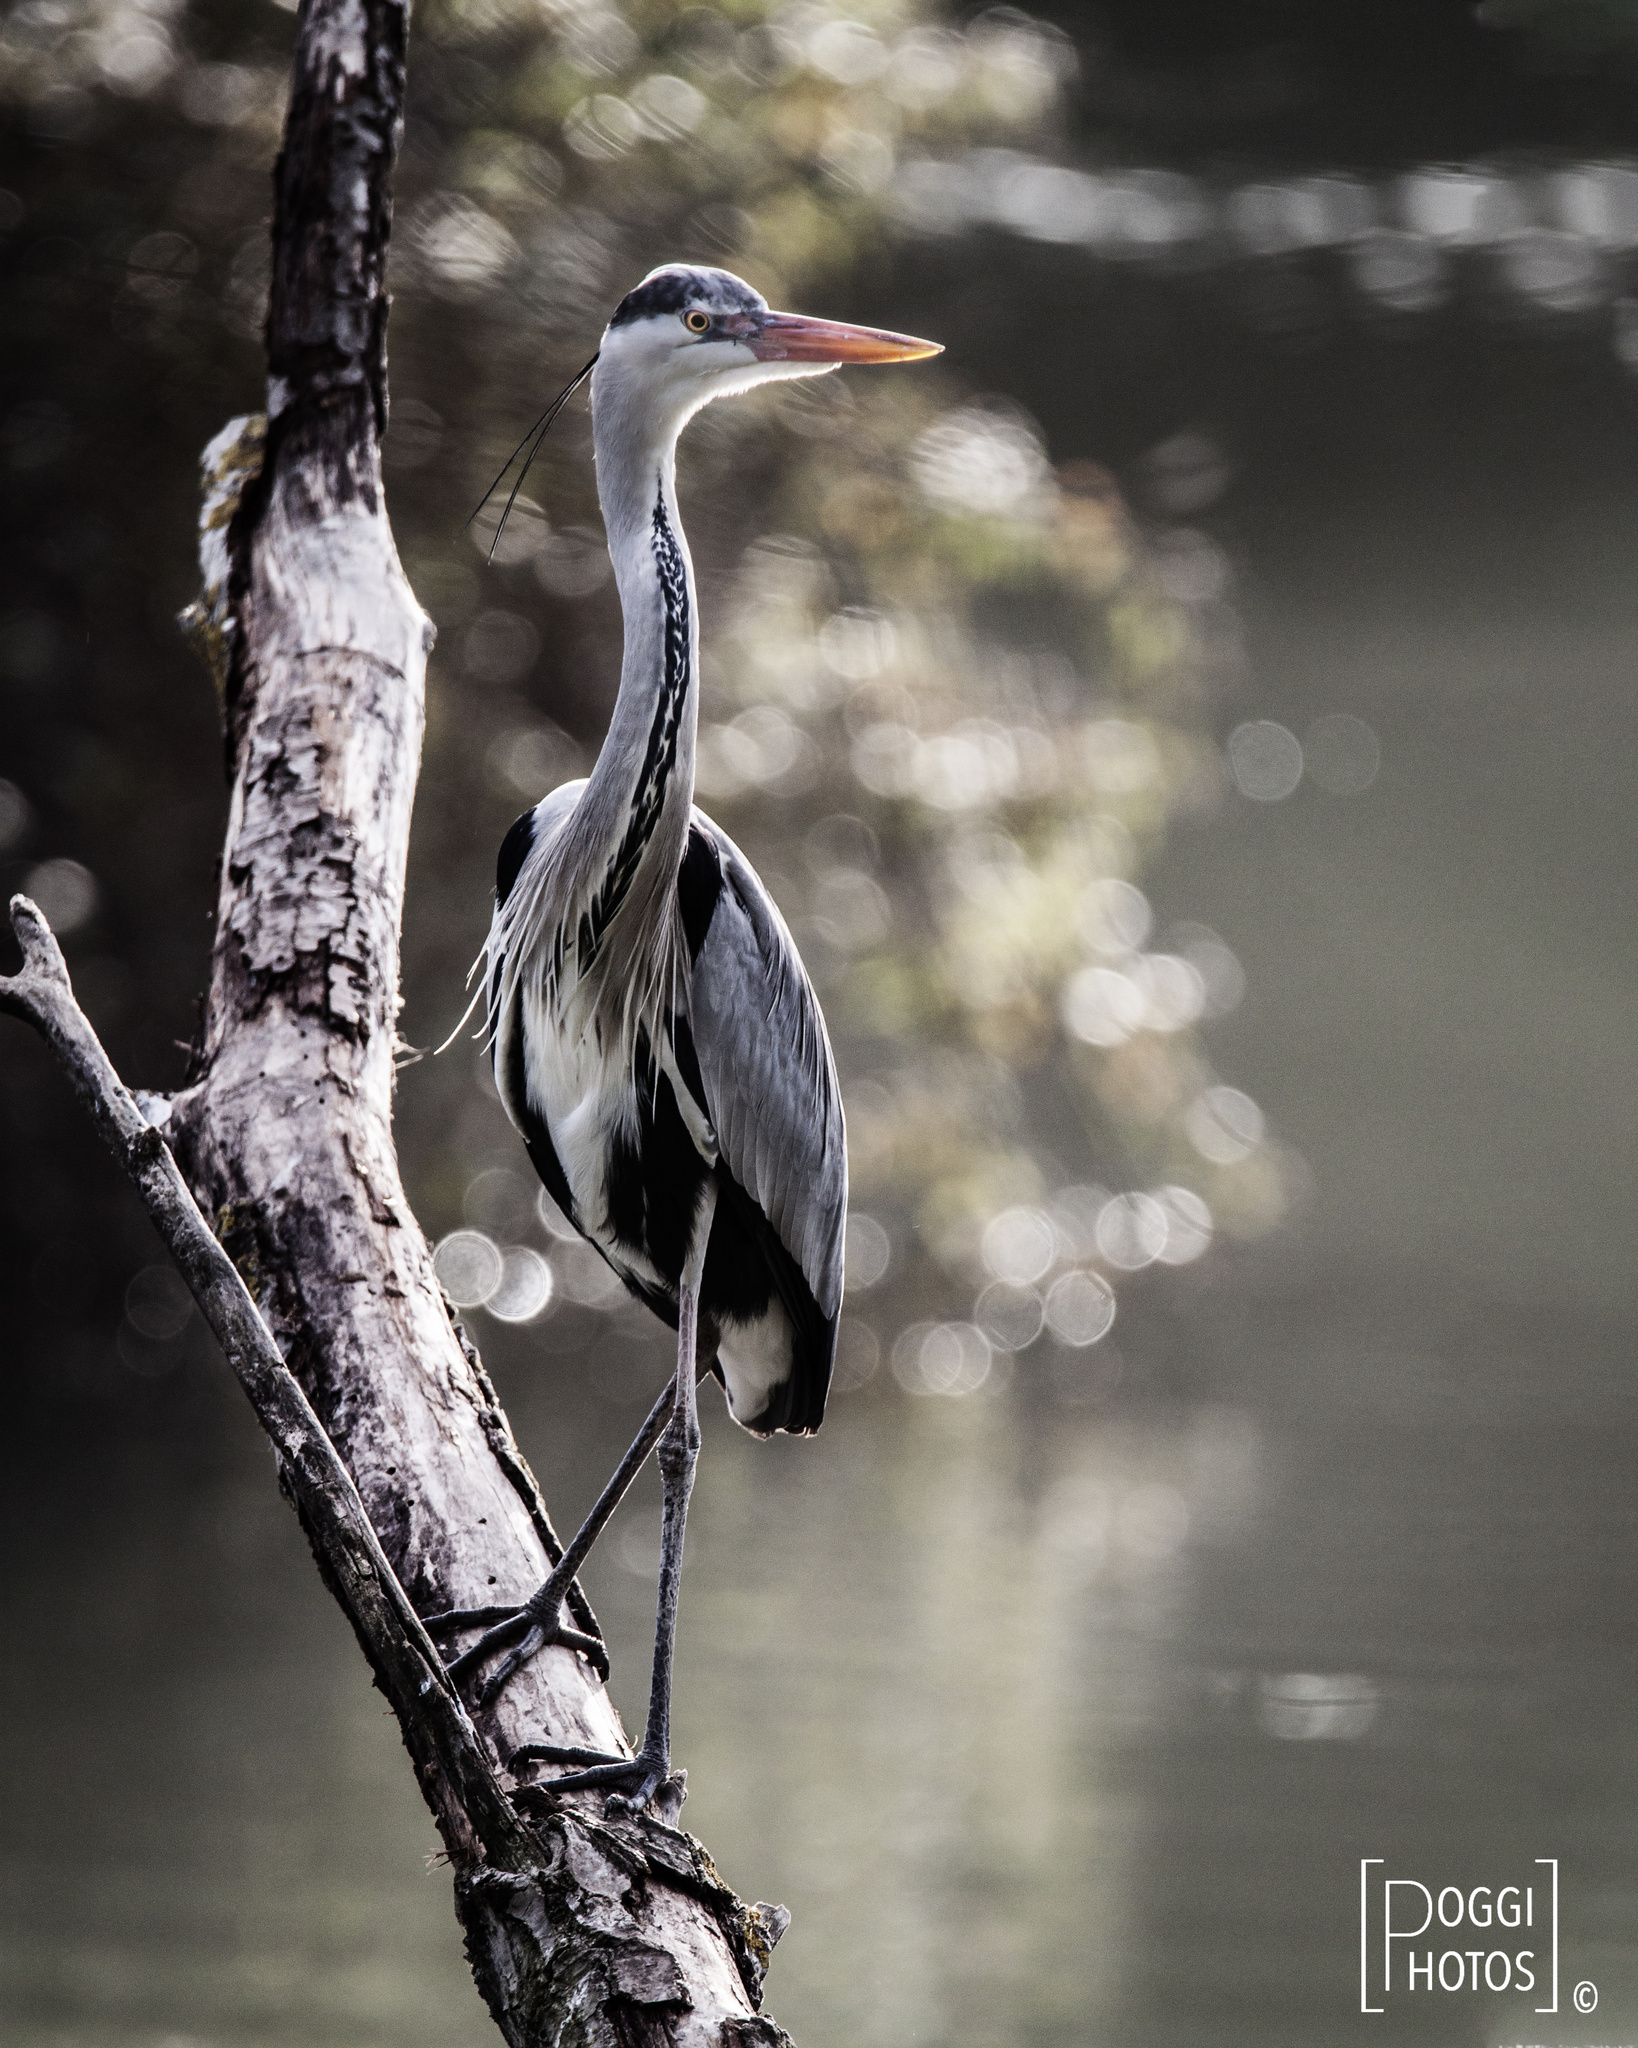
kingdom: Animalia
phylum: Chordata
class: Aves
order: Pelecaniformes
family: Ardeidae
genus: Ardea
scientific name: Ardea cinerea
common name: Grey heron
